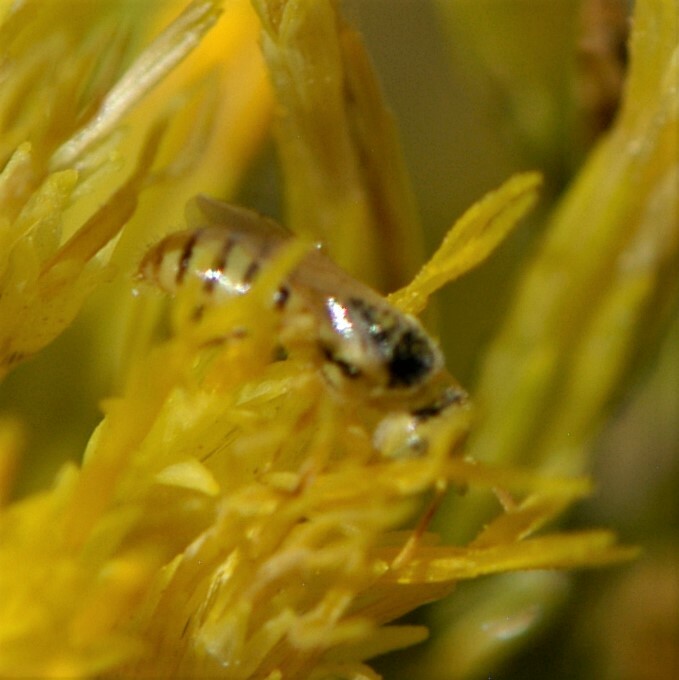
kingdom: Animalia
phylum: Arthropoda
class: Insecta
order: Hymenoptera
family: Andrenidae
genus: Perdita
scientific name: Perdita
